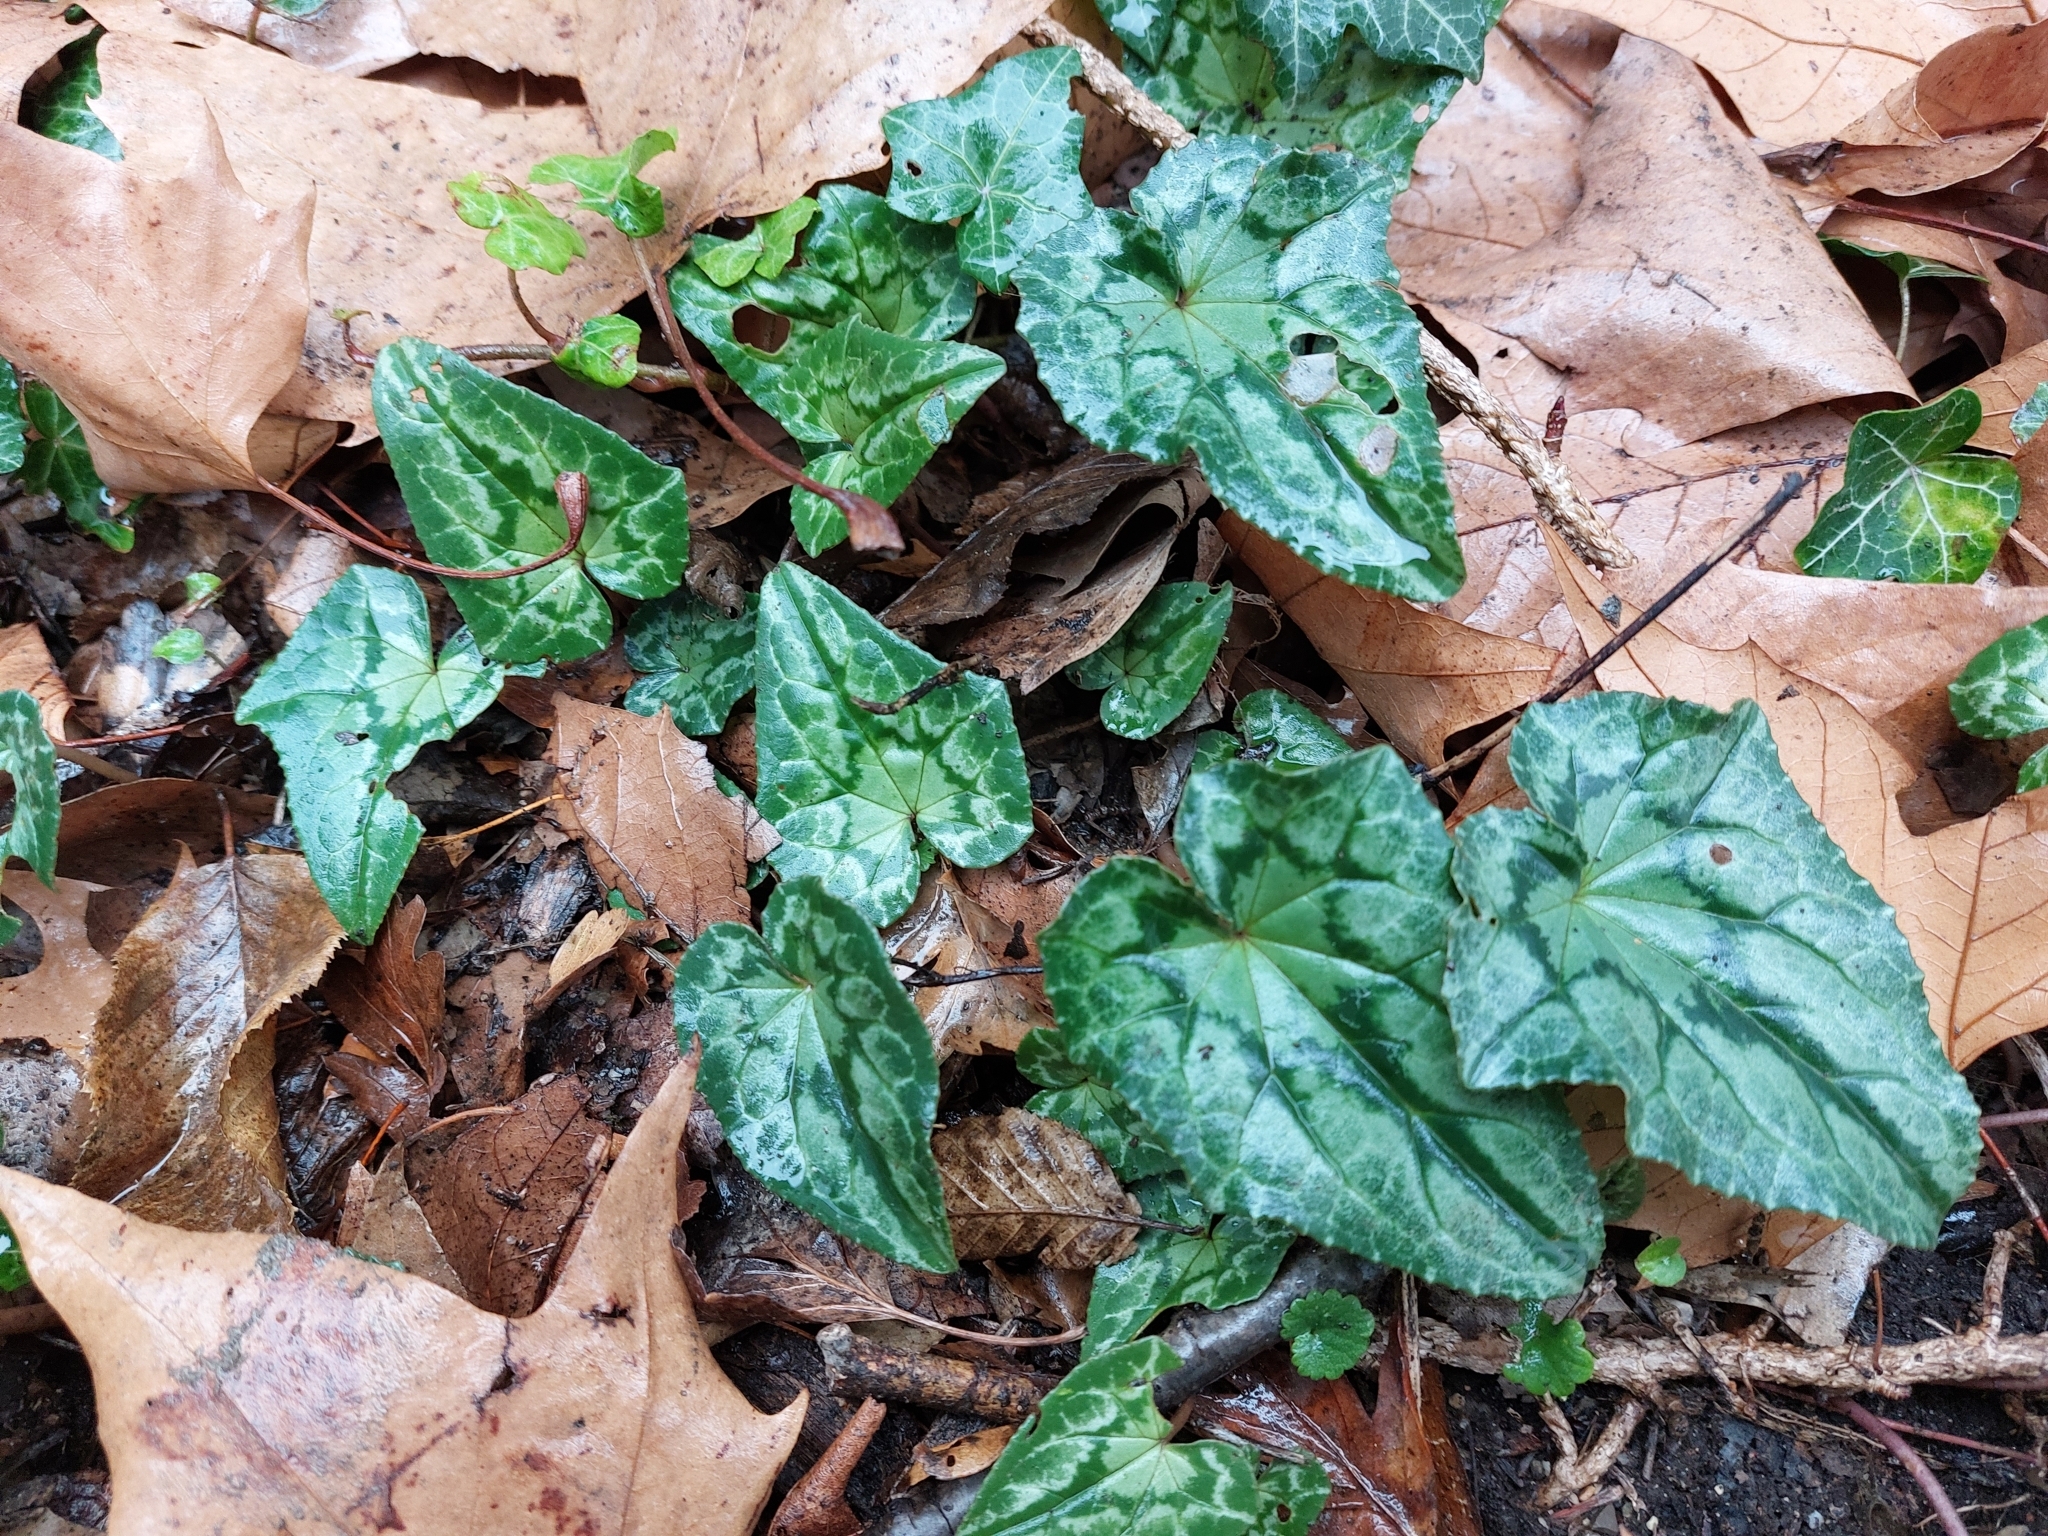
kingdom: Plantae
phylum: Tracheophyta
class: Magnoliopsida
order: Ericales
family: Primulaceae
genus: Cyclamen
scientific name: Cyclamen hederifolium
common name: Sowbread
